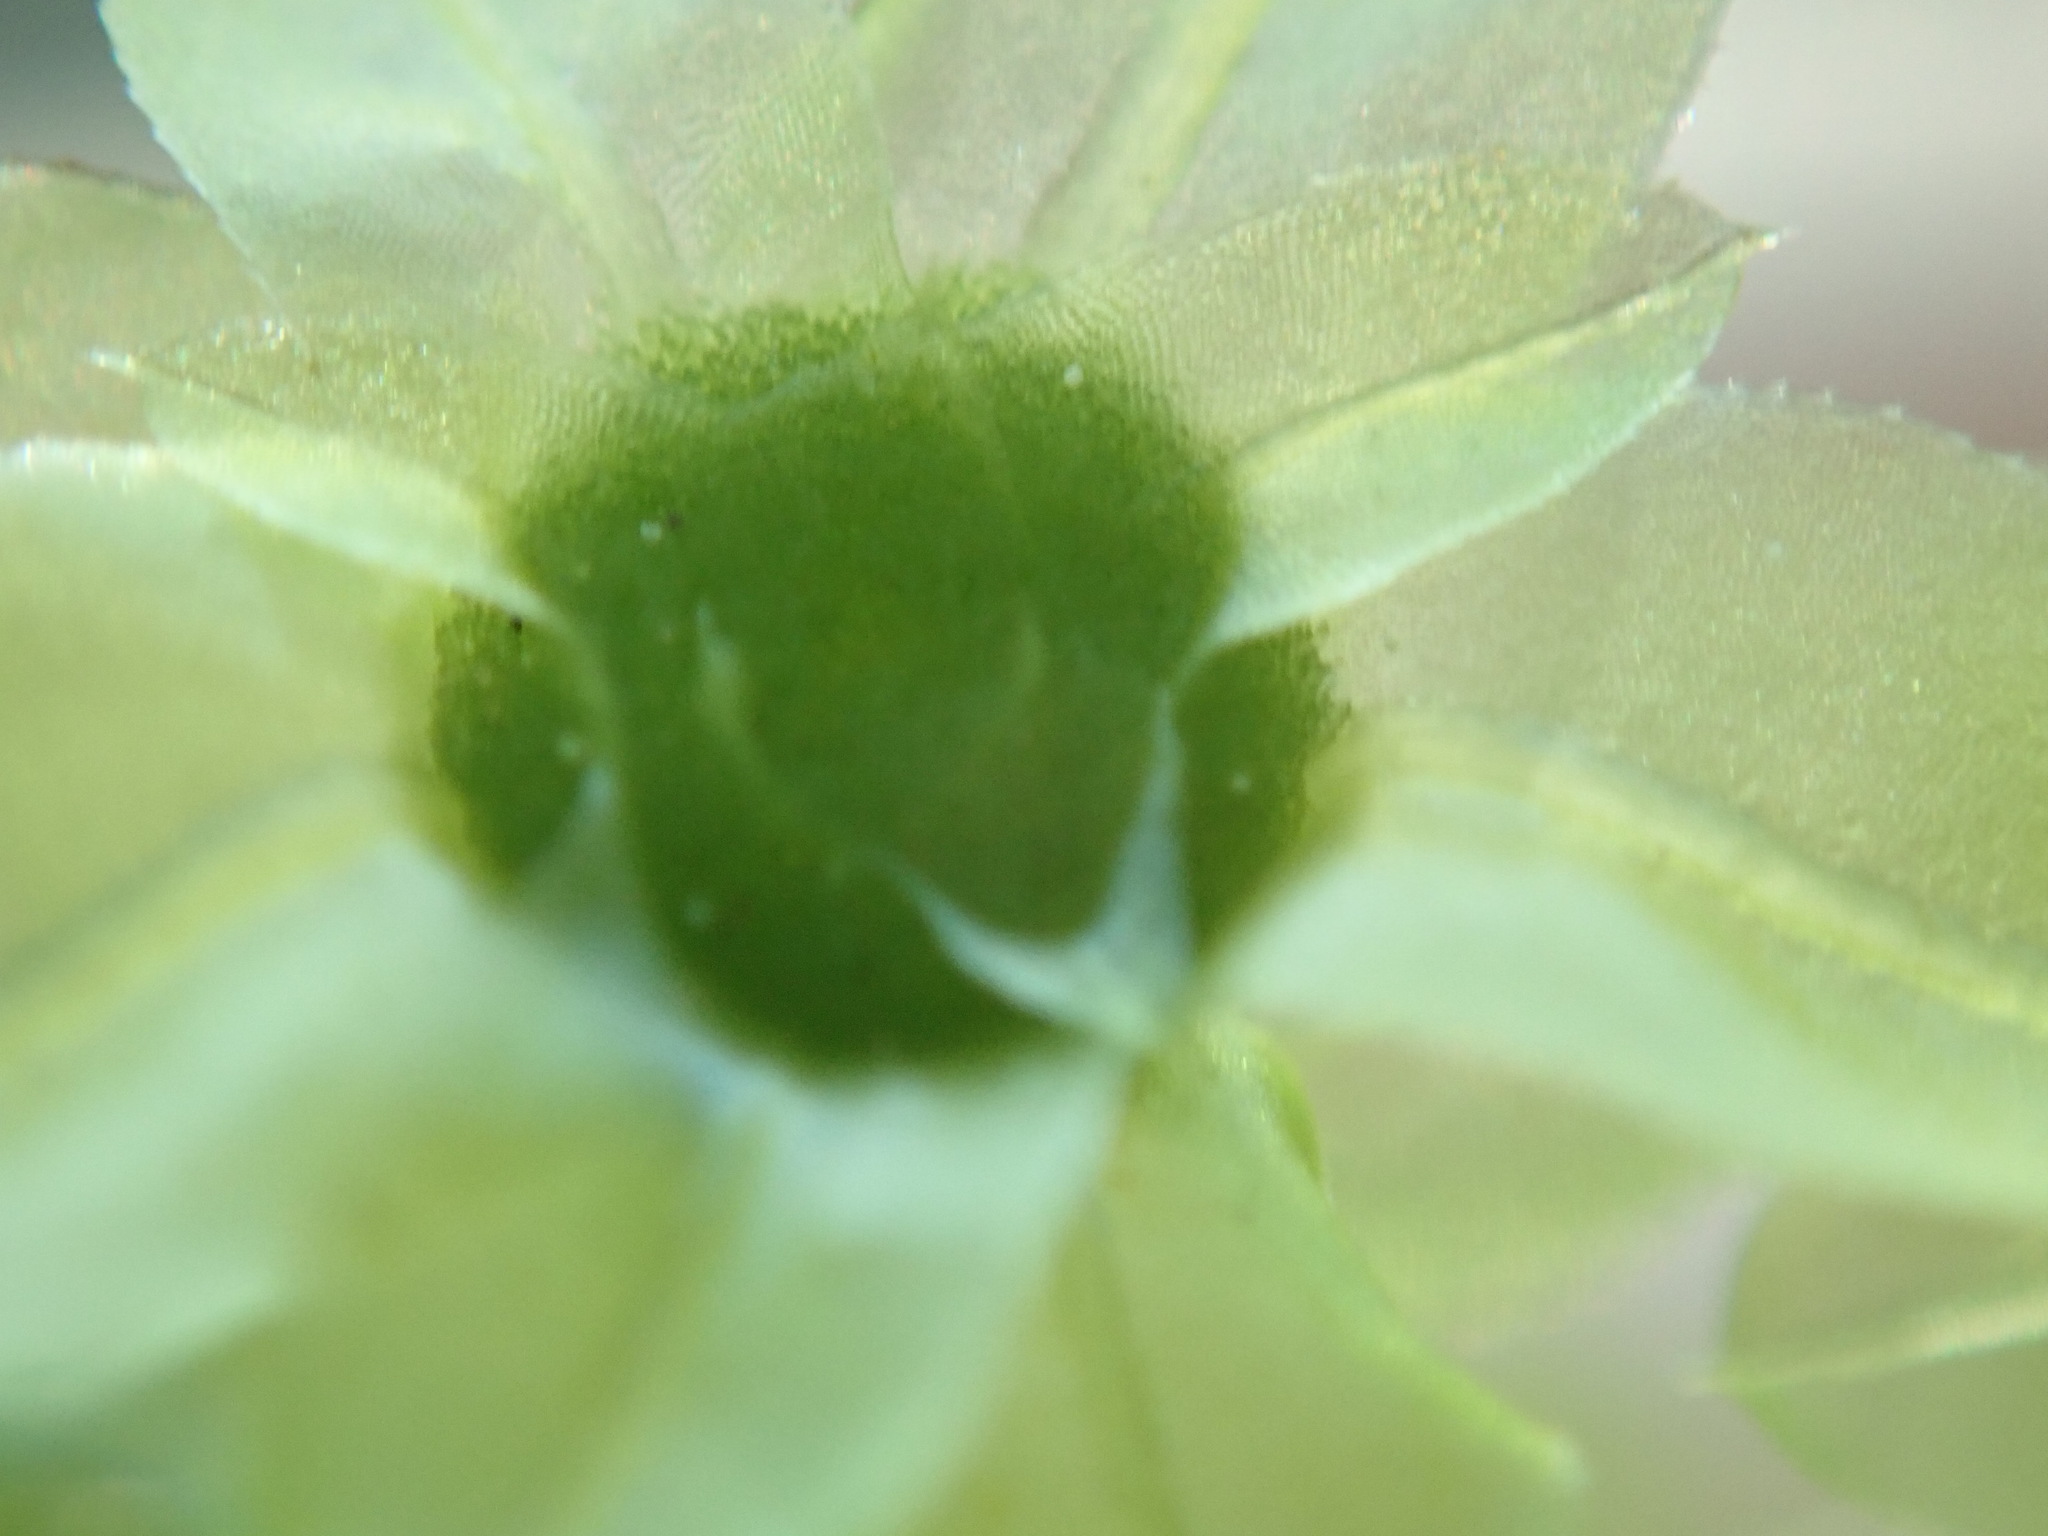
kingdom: Plantae
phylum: Bryophyta
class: Bryopsida
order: Bryales
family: Mniaceae
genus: Plagiomnium
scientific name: Plagiomnium insigne
